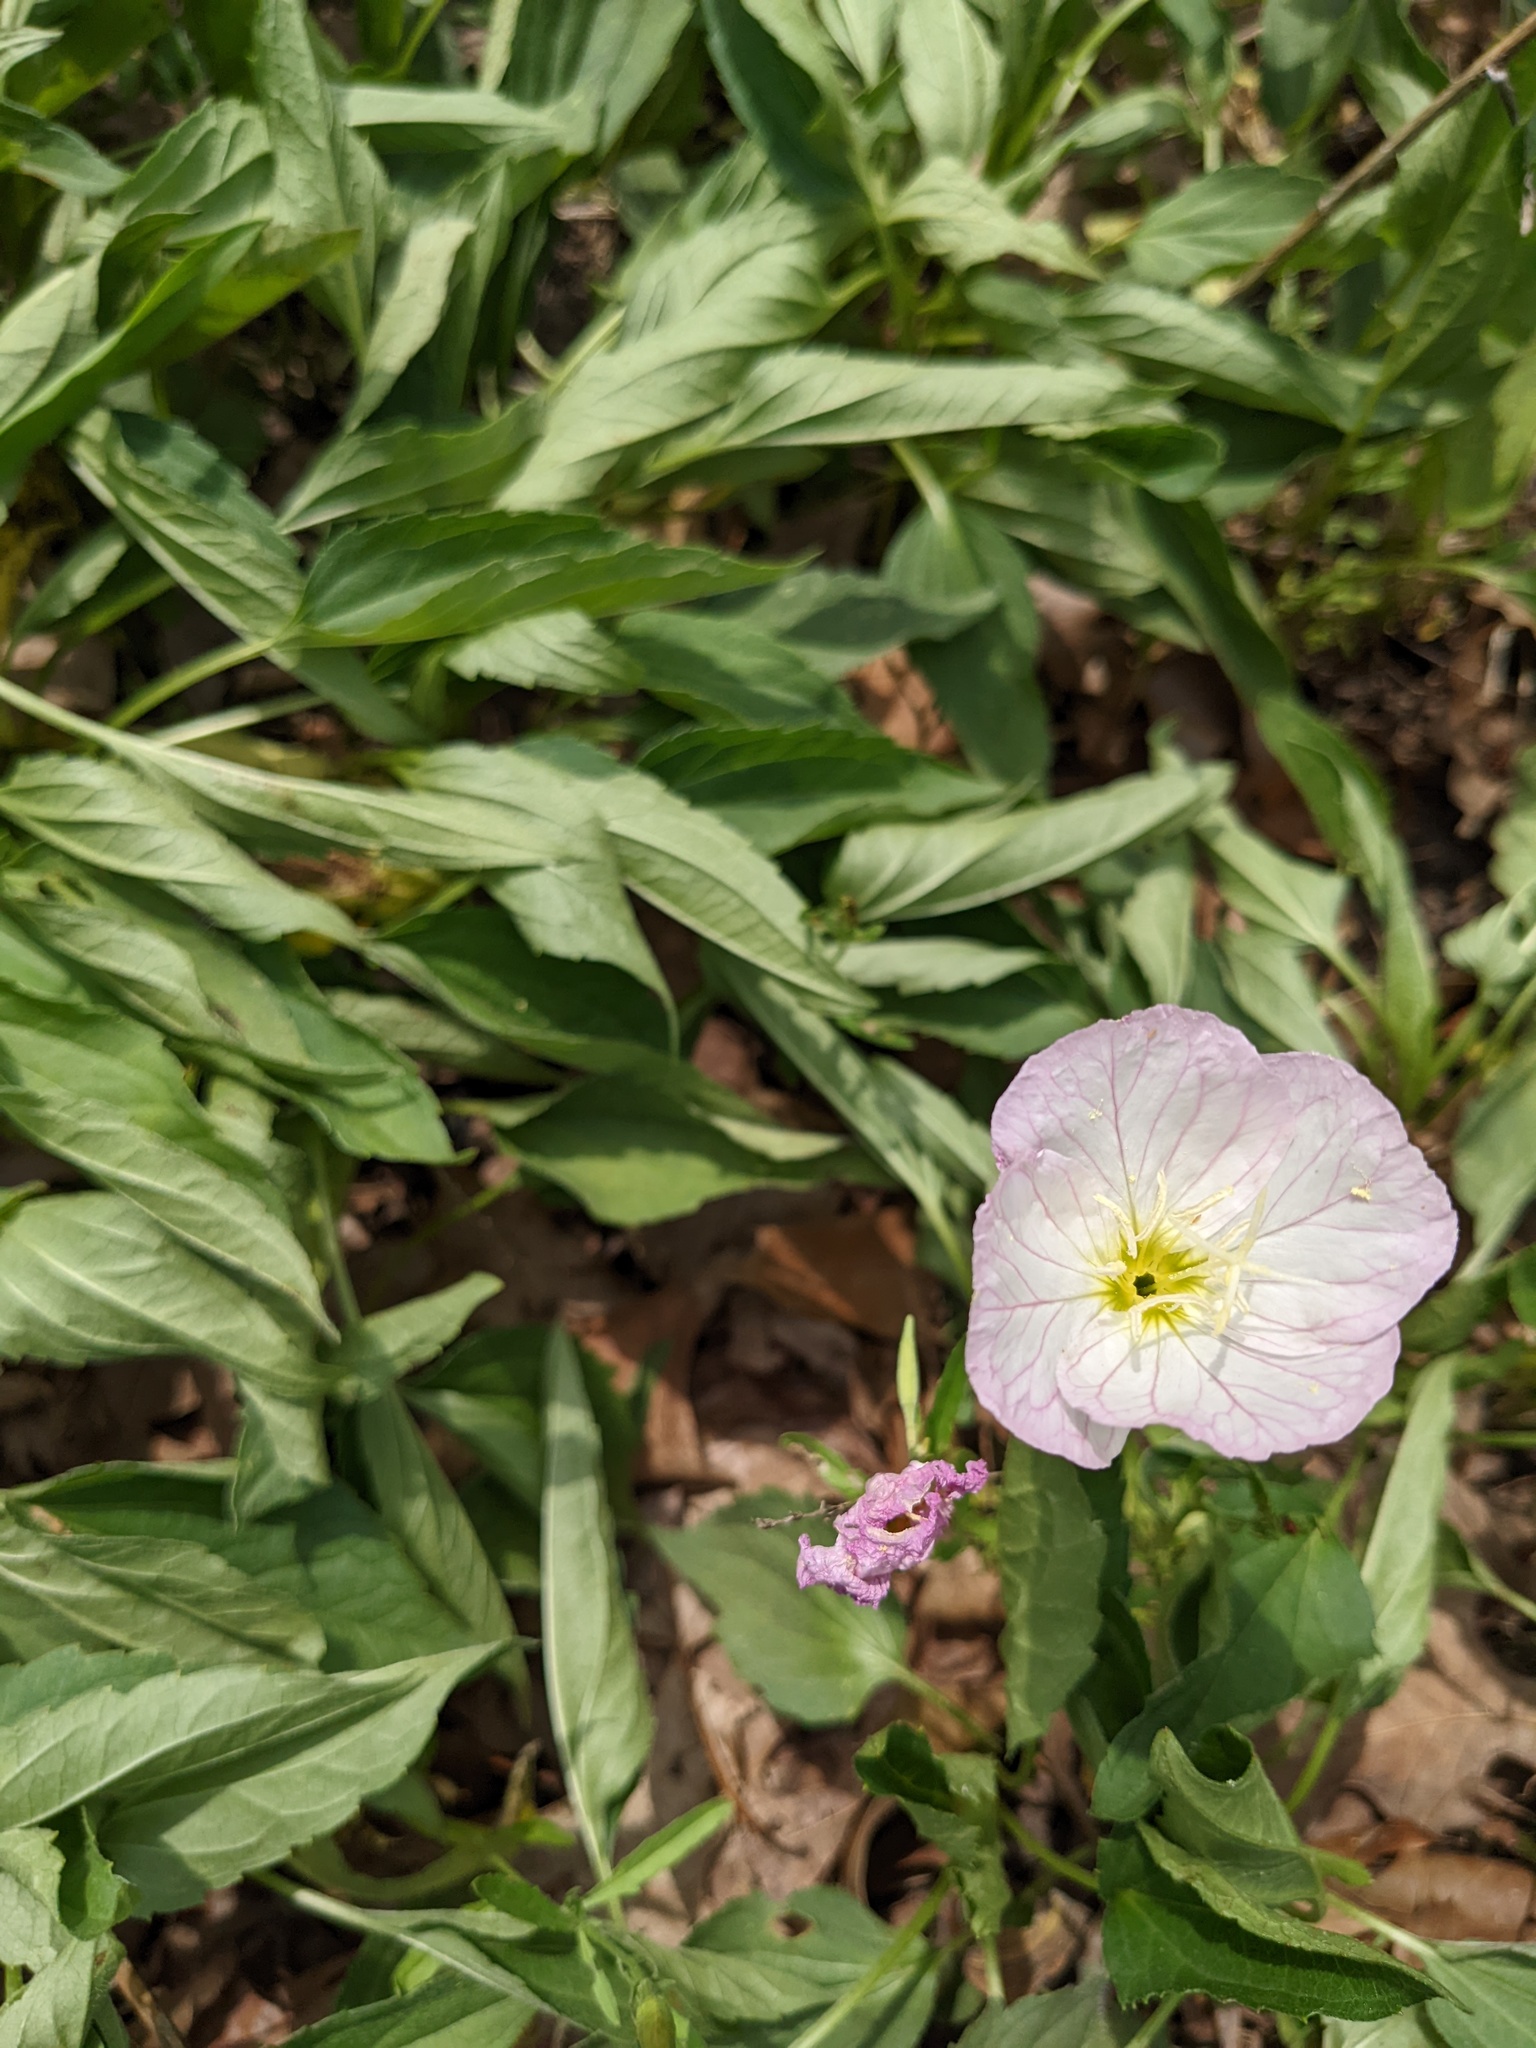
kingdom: Plantae
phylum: Tracheophyta
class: Magnoliopsida
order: Myrtales
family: Onagraceae
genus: Oenothera
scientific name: Oenothera speciosa
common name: White evening-primrose
